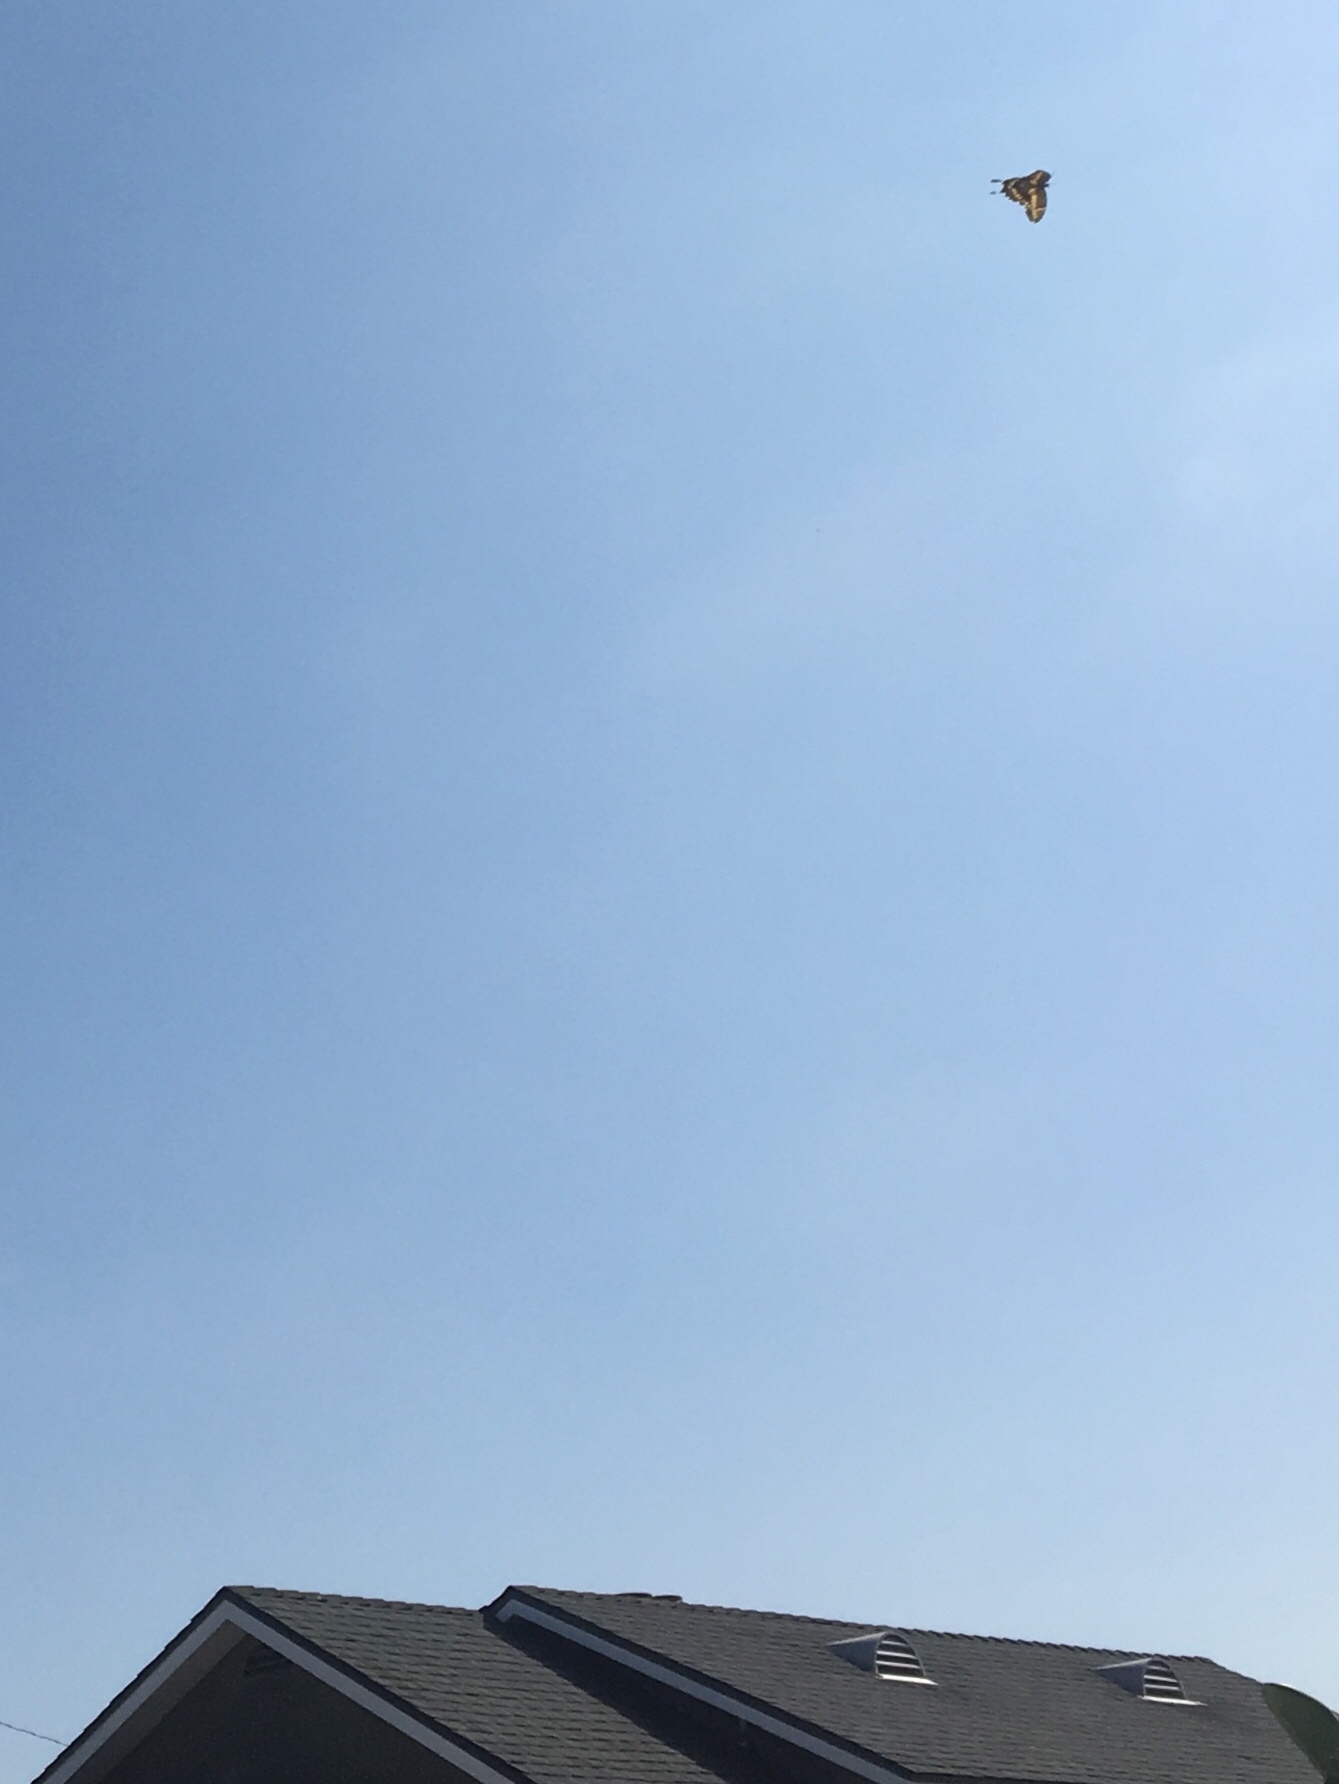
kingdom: Animalia
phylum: Arthropoda
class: Insecta
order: Lepidoptera
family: Papilionidae
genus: Papilio
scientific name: Papilio rumiko
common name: Western giant swallowtail
